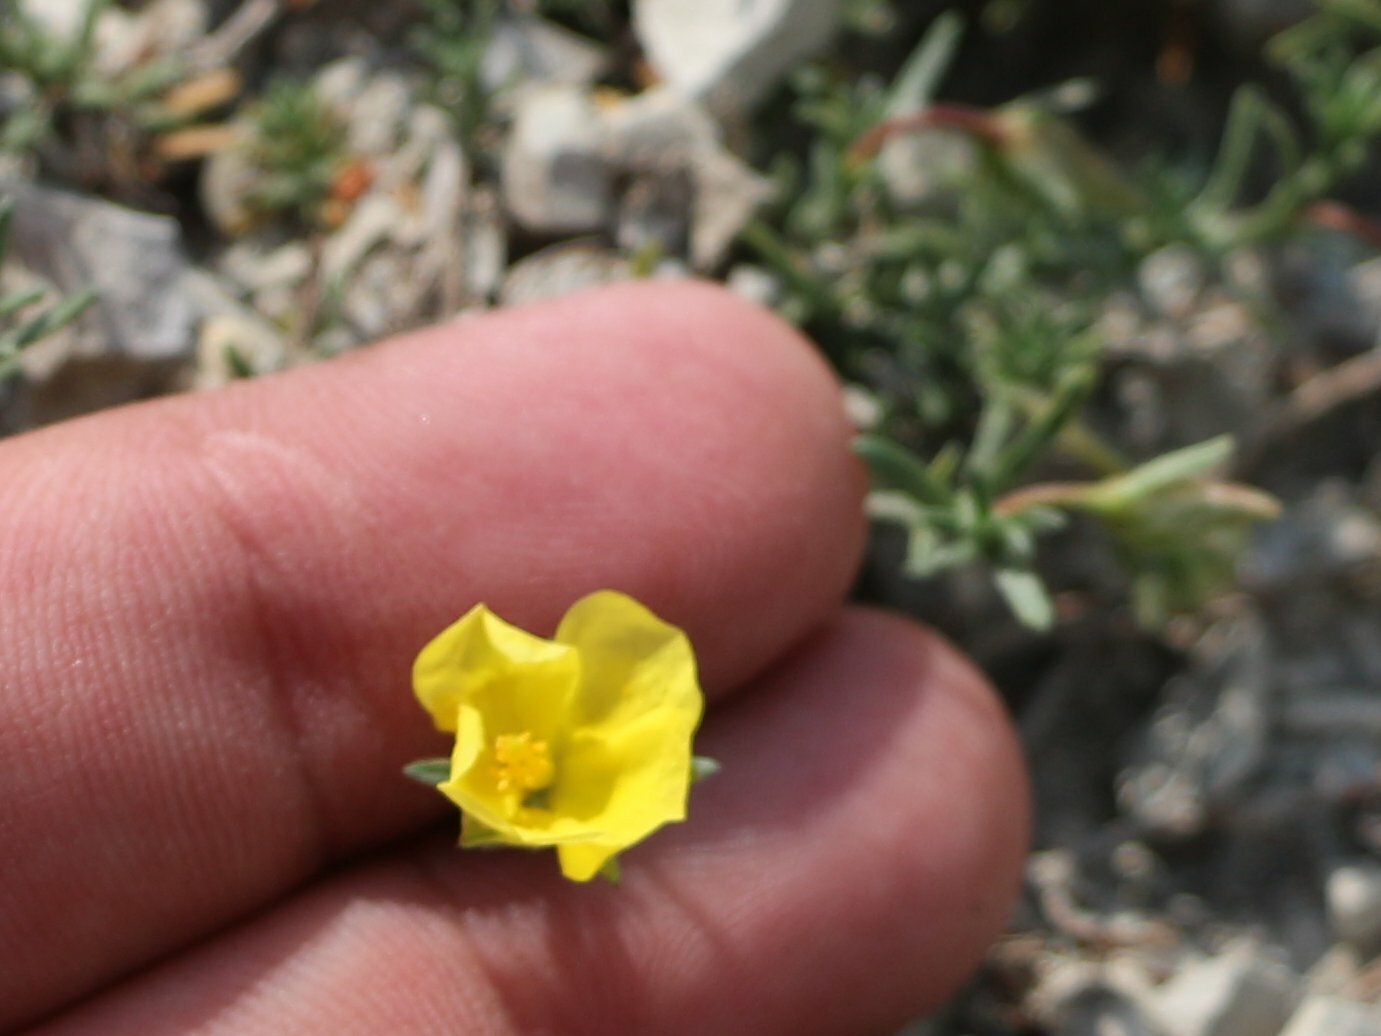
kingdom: Plantae
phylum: Tracheophyta
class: Magnoliopsida
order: Malvales
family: Cistaceae
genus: Fumana
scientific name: Fumana procumbens
